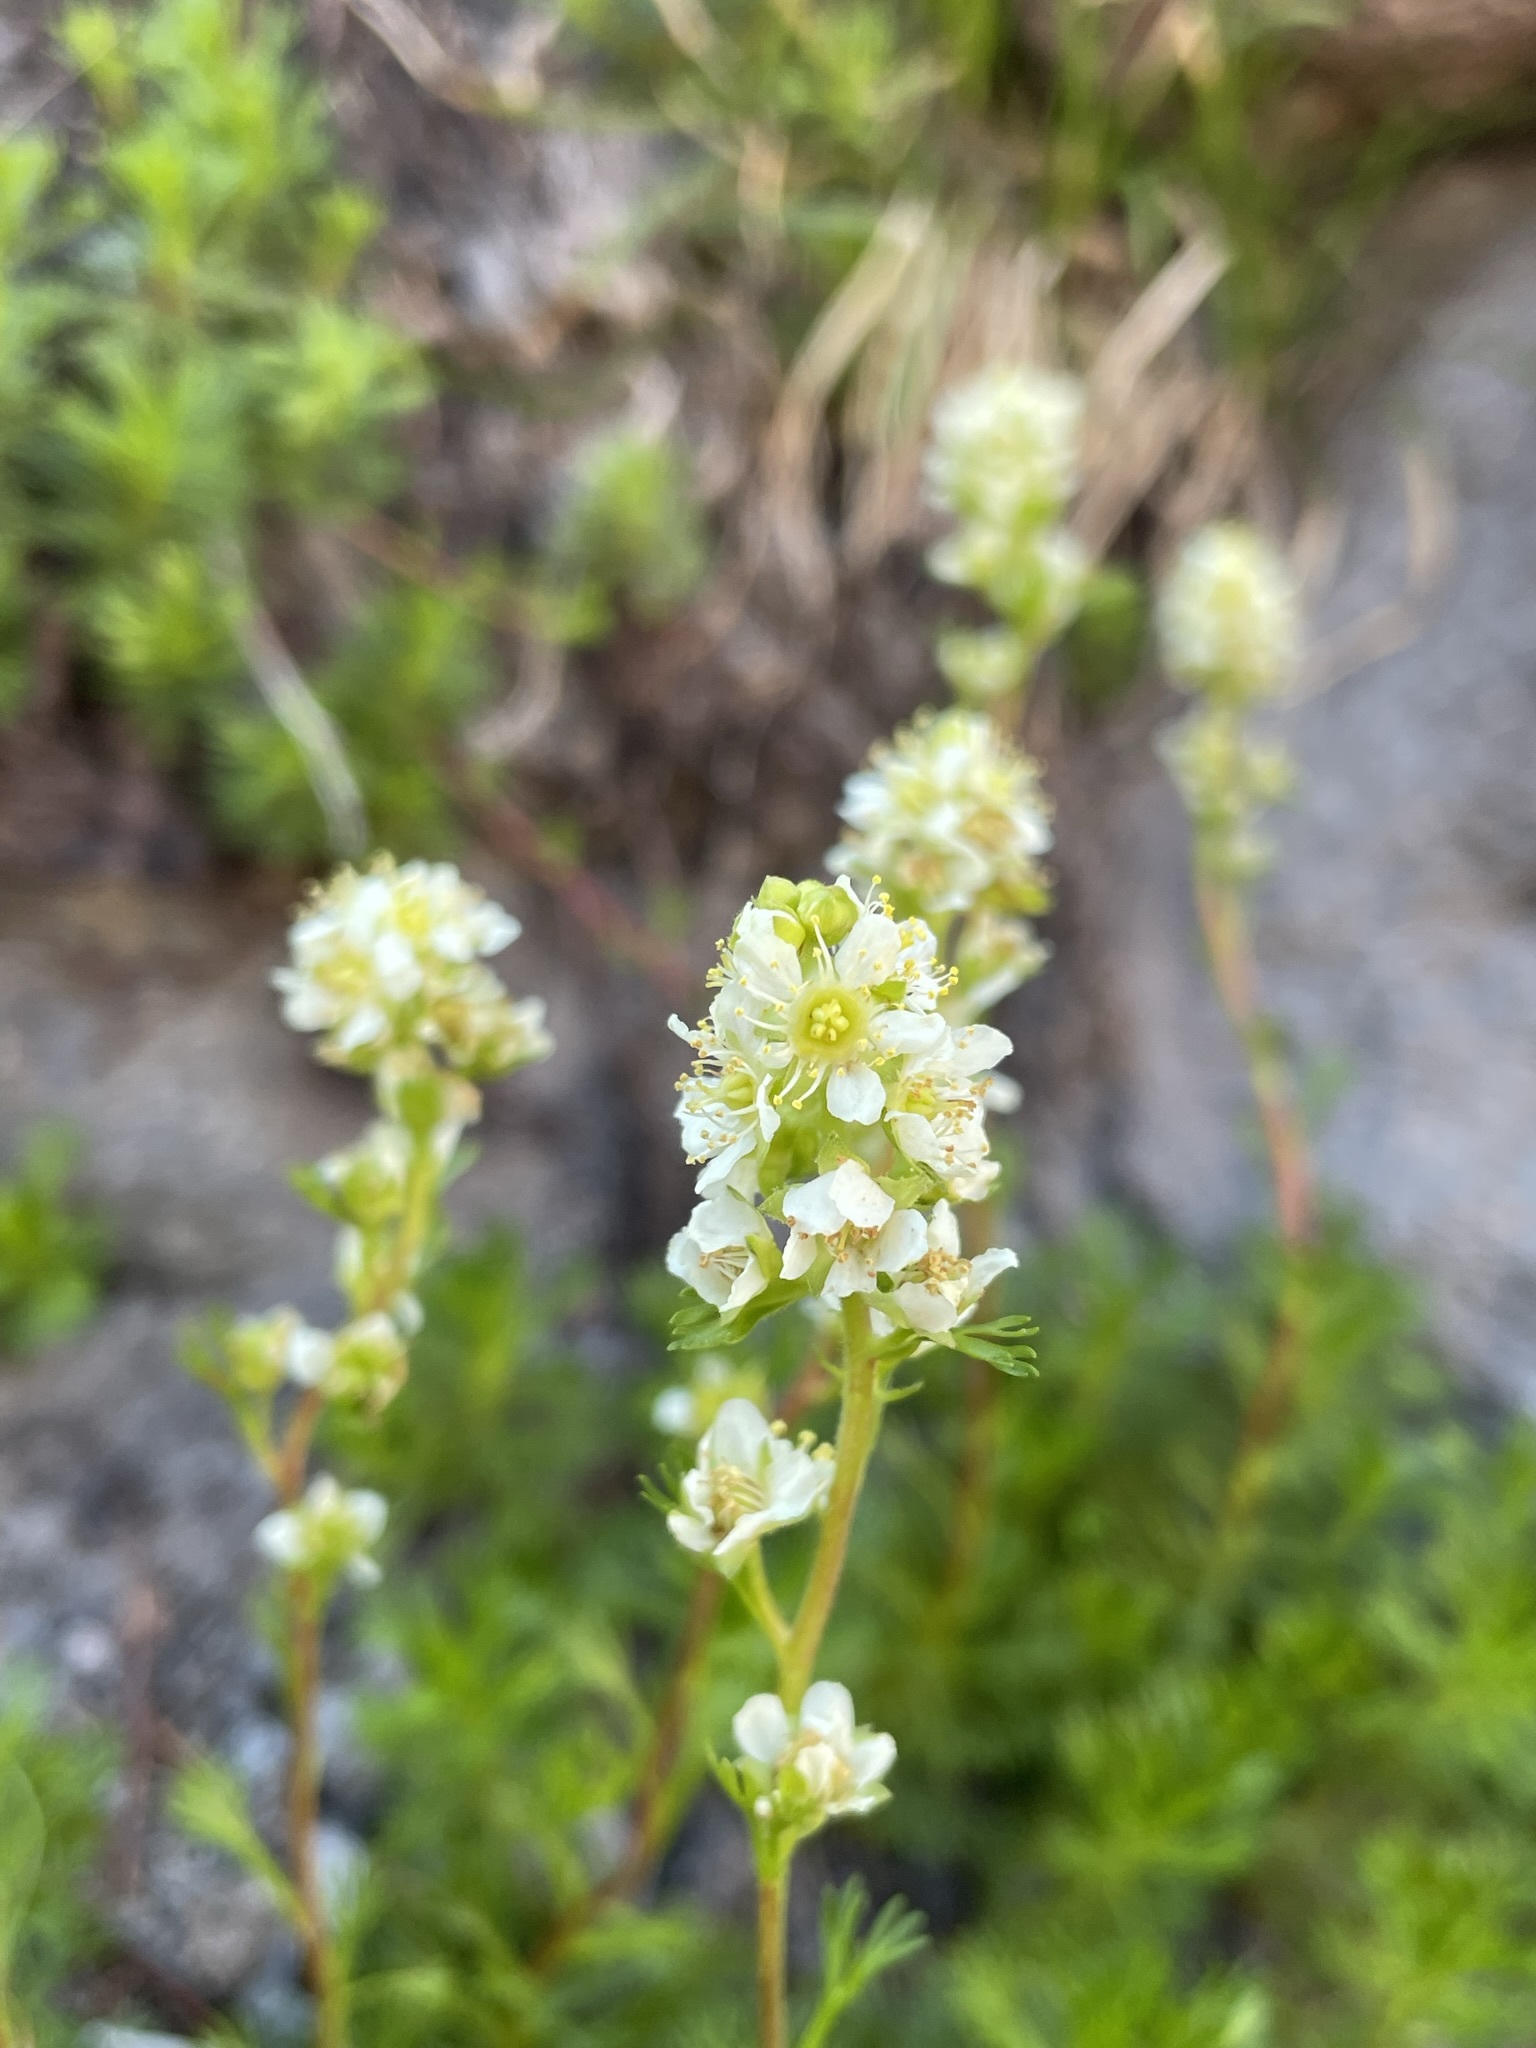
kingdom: Plantae
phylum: Tracheophyta
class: Magnoliopsida
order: Rosales
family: Rosaceae
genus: Luetkea
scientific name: Luetkea pectinata
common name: Partridgefoot
